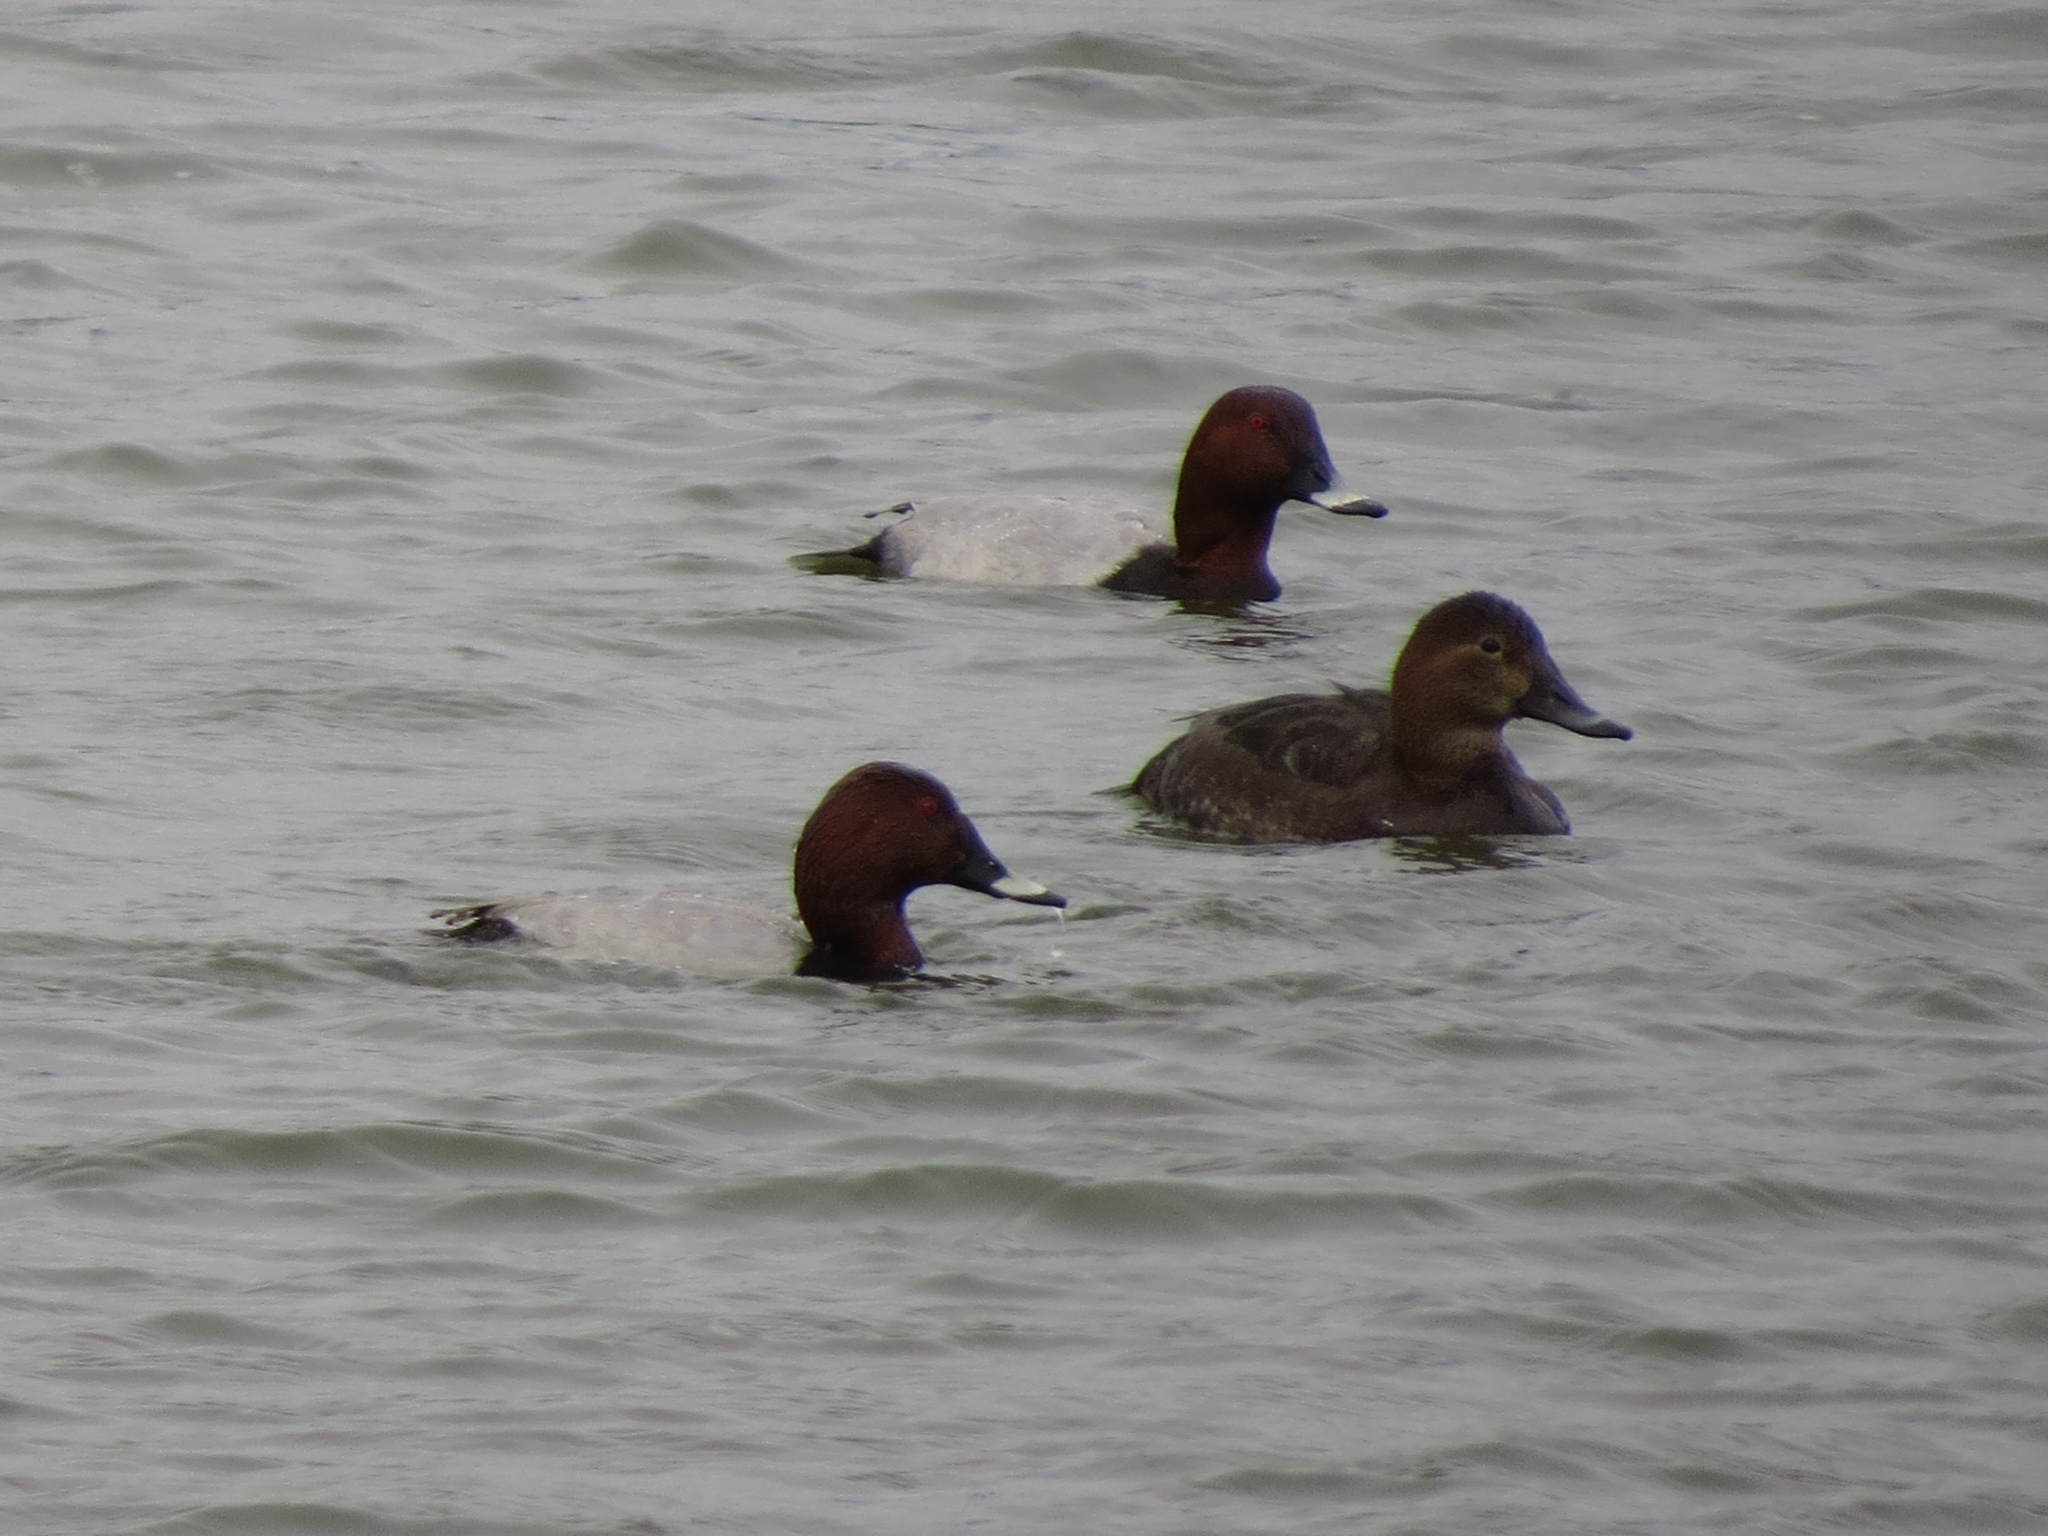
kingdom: Animalia
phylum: Chordata
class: Aves
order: Anseriformes
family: Anatidae
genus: Aythya
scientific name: Aythya ferina
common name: Common pochard
